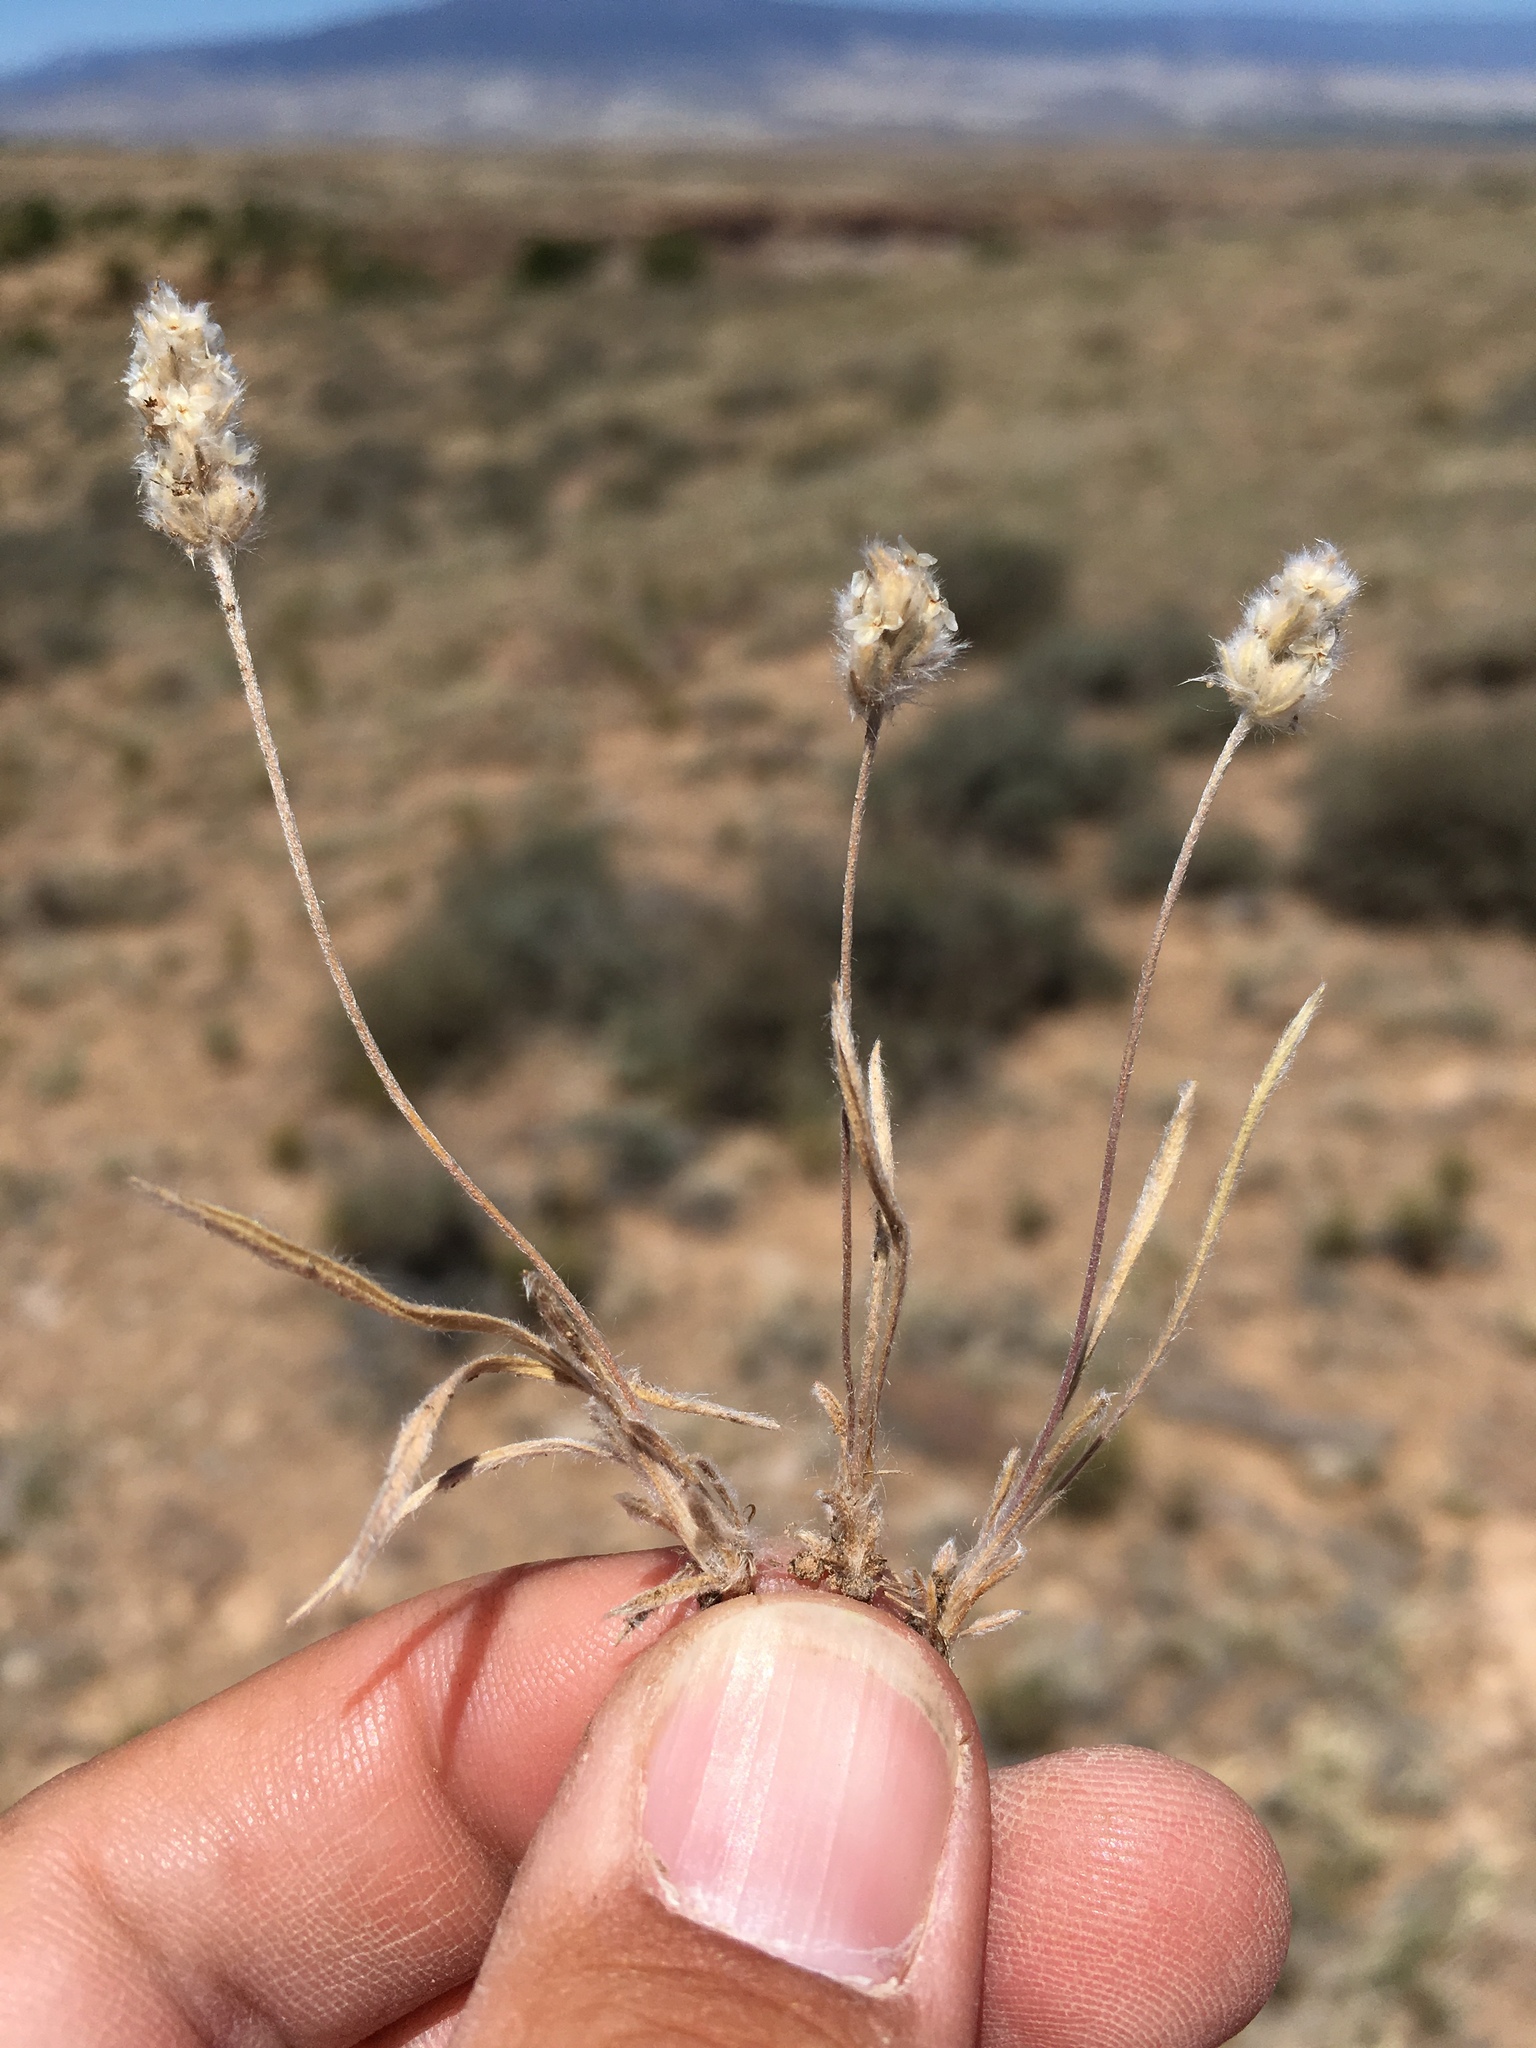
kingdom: Plantae
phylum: Tracheophyta
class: Magnoliopsida
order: Lamiales
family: Plantaginaceae
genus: Plantago
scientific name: Plantago patagonica
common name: Patagonia indian-wheat
